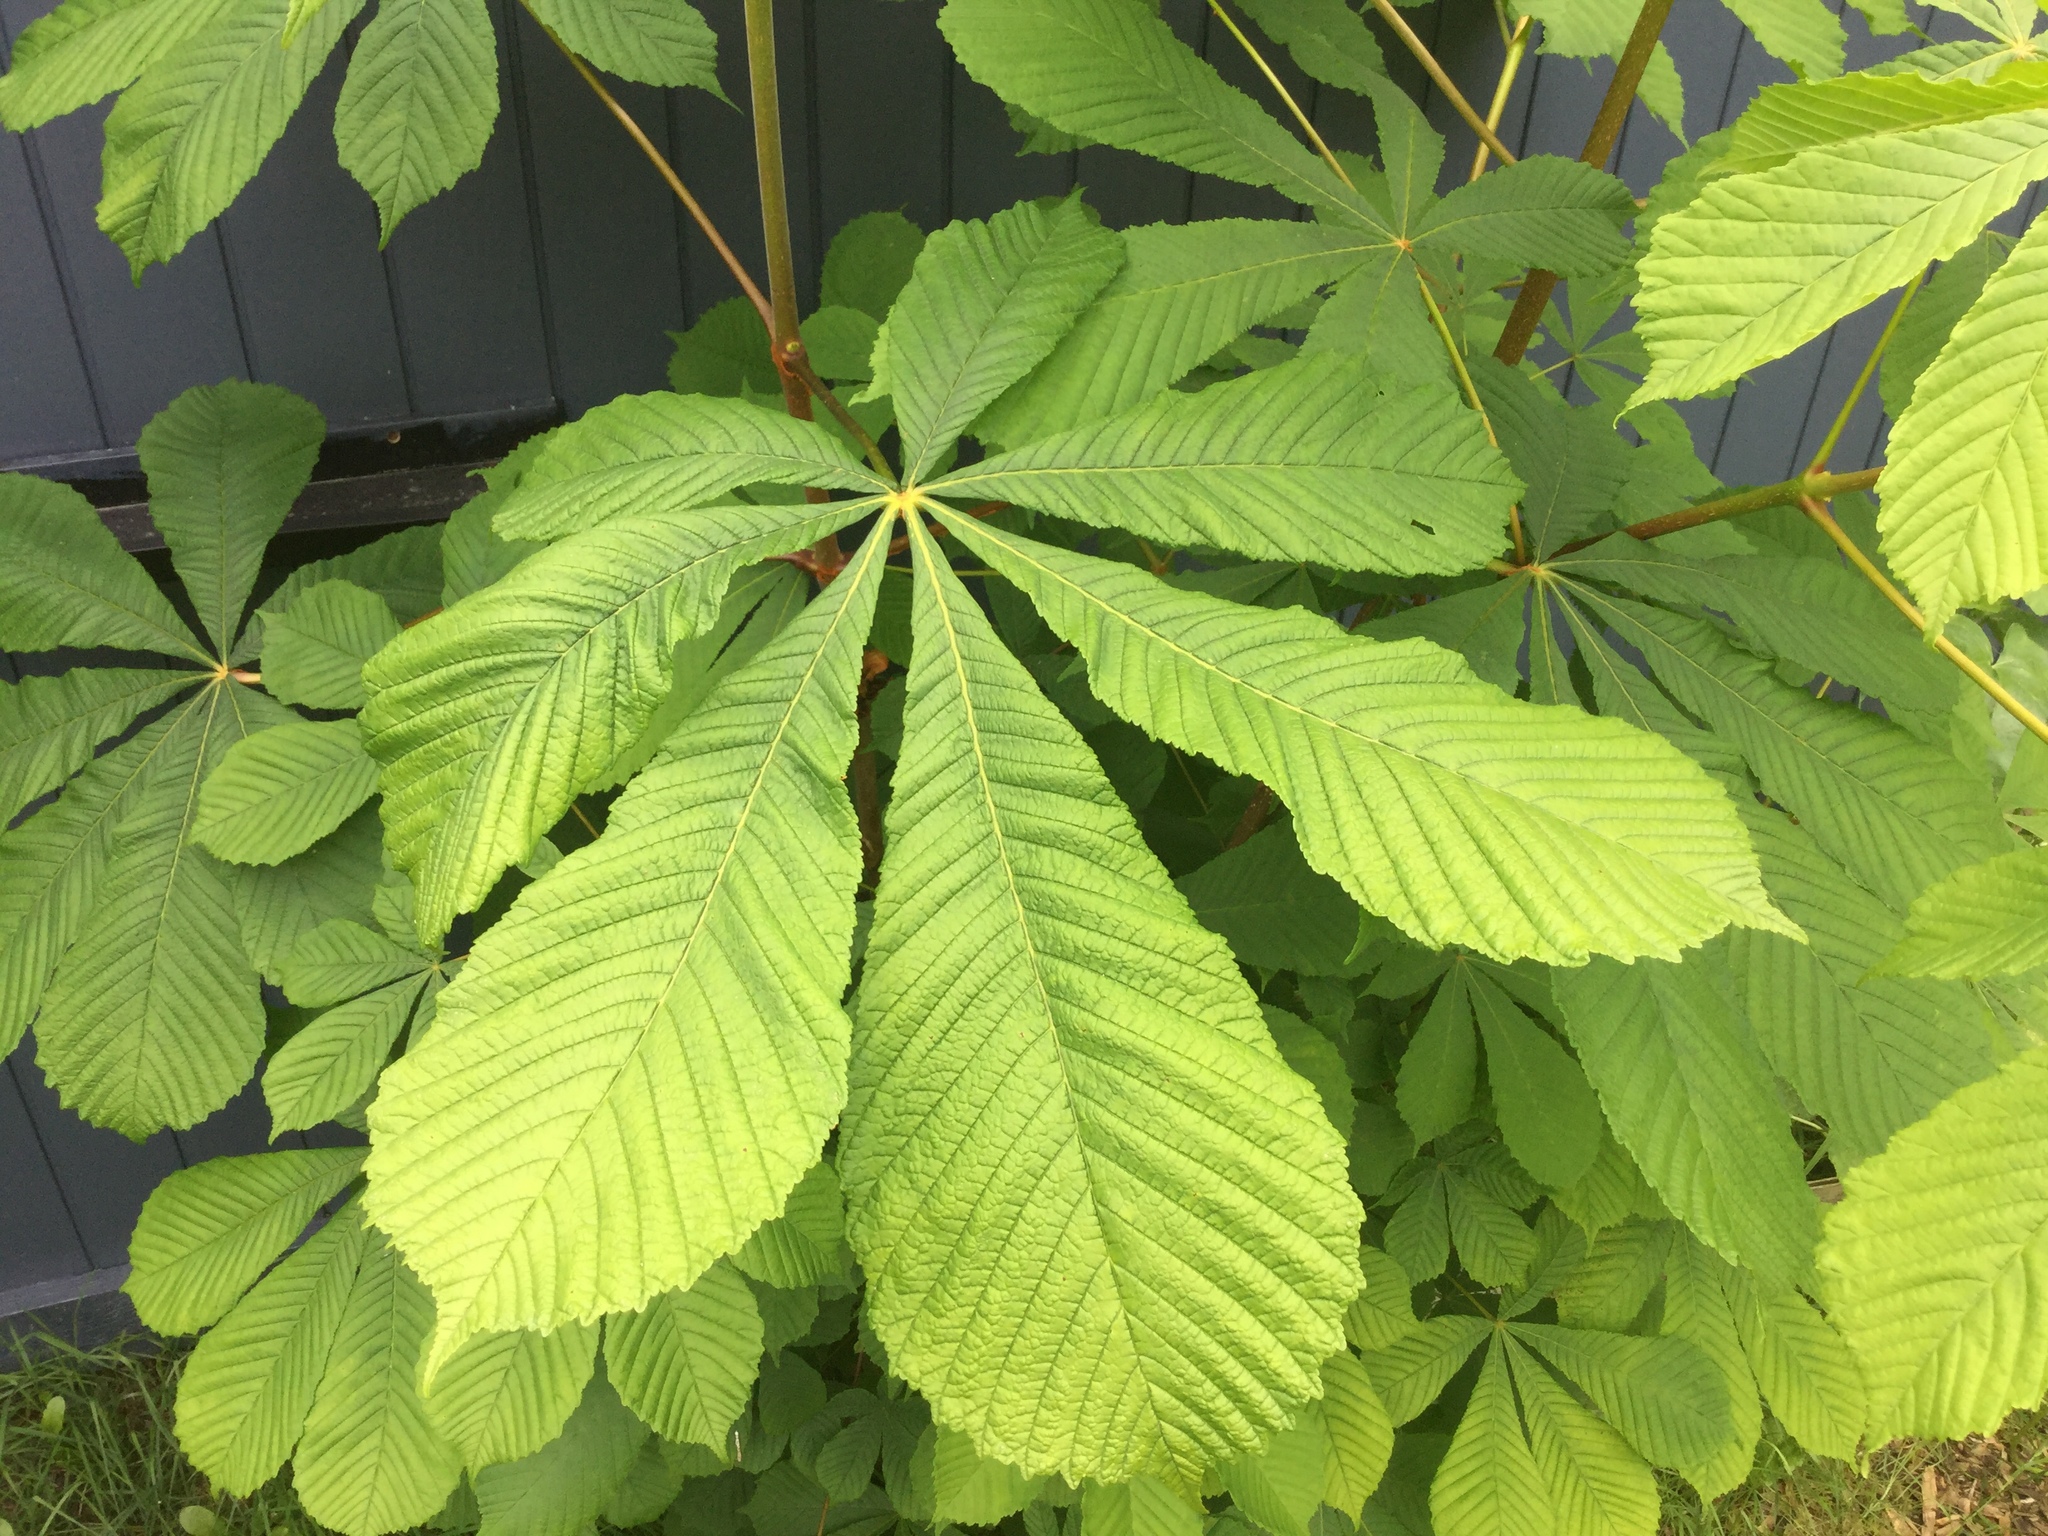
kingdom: Plantae
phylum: Tracheophyta
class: Magnoliopsida
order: Sapindales
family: Sapindaceae
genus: Aesculus
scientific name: Aesculus hippocastanum
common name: Horse-chestnut
